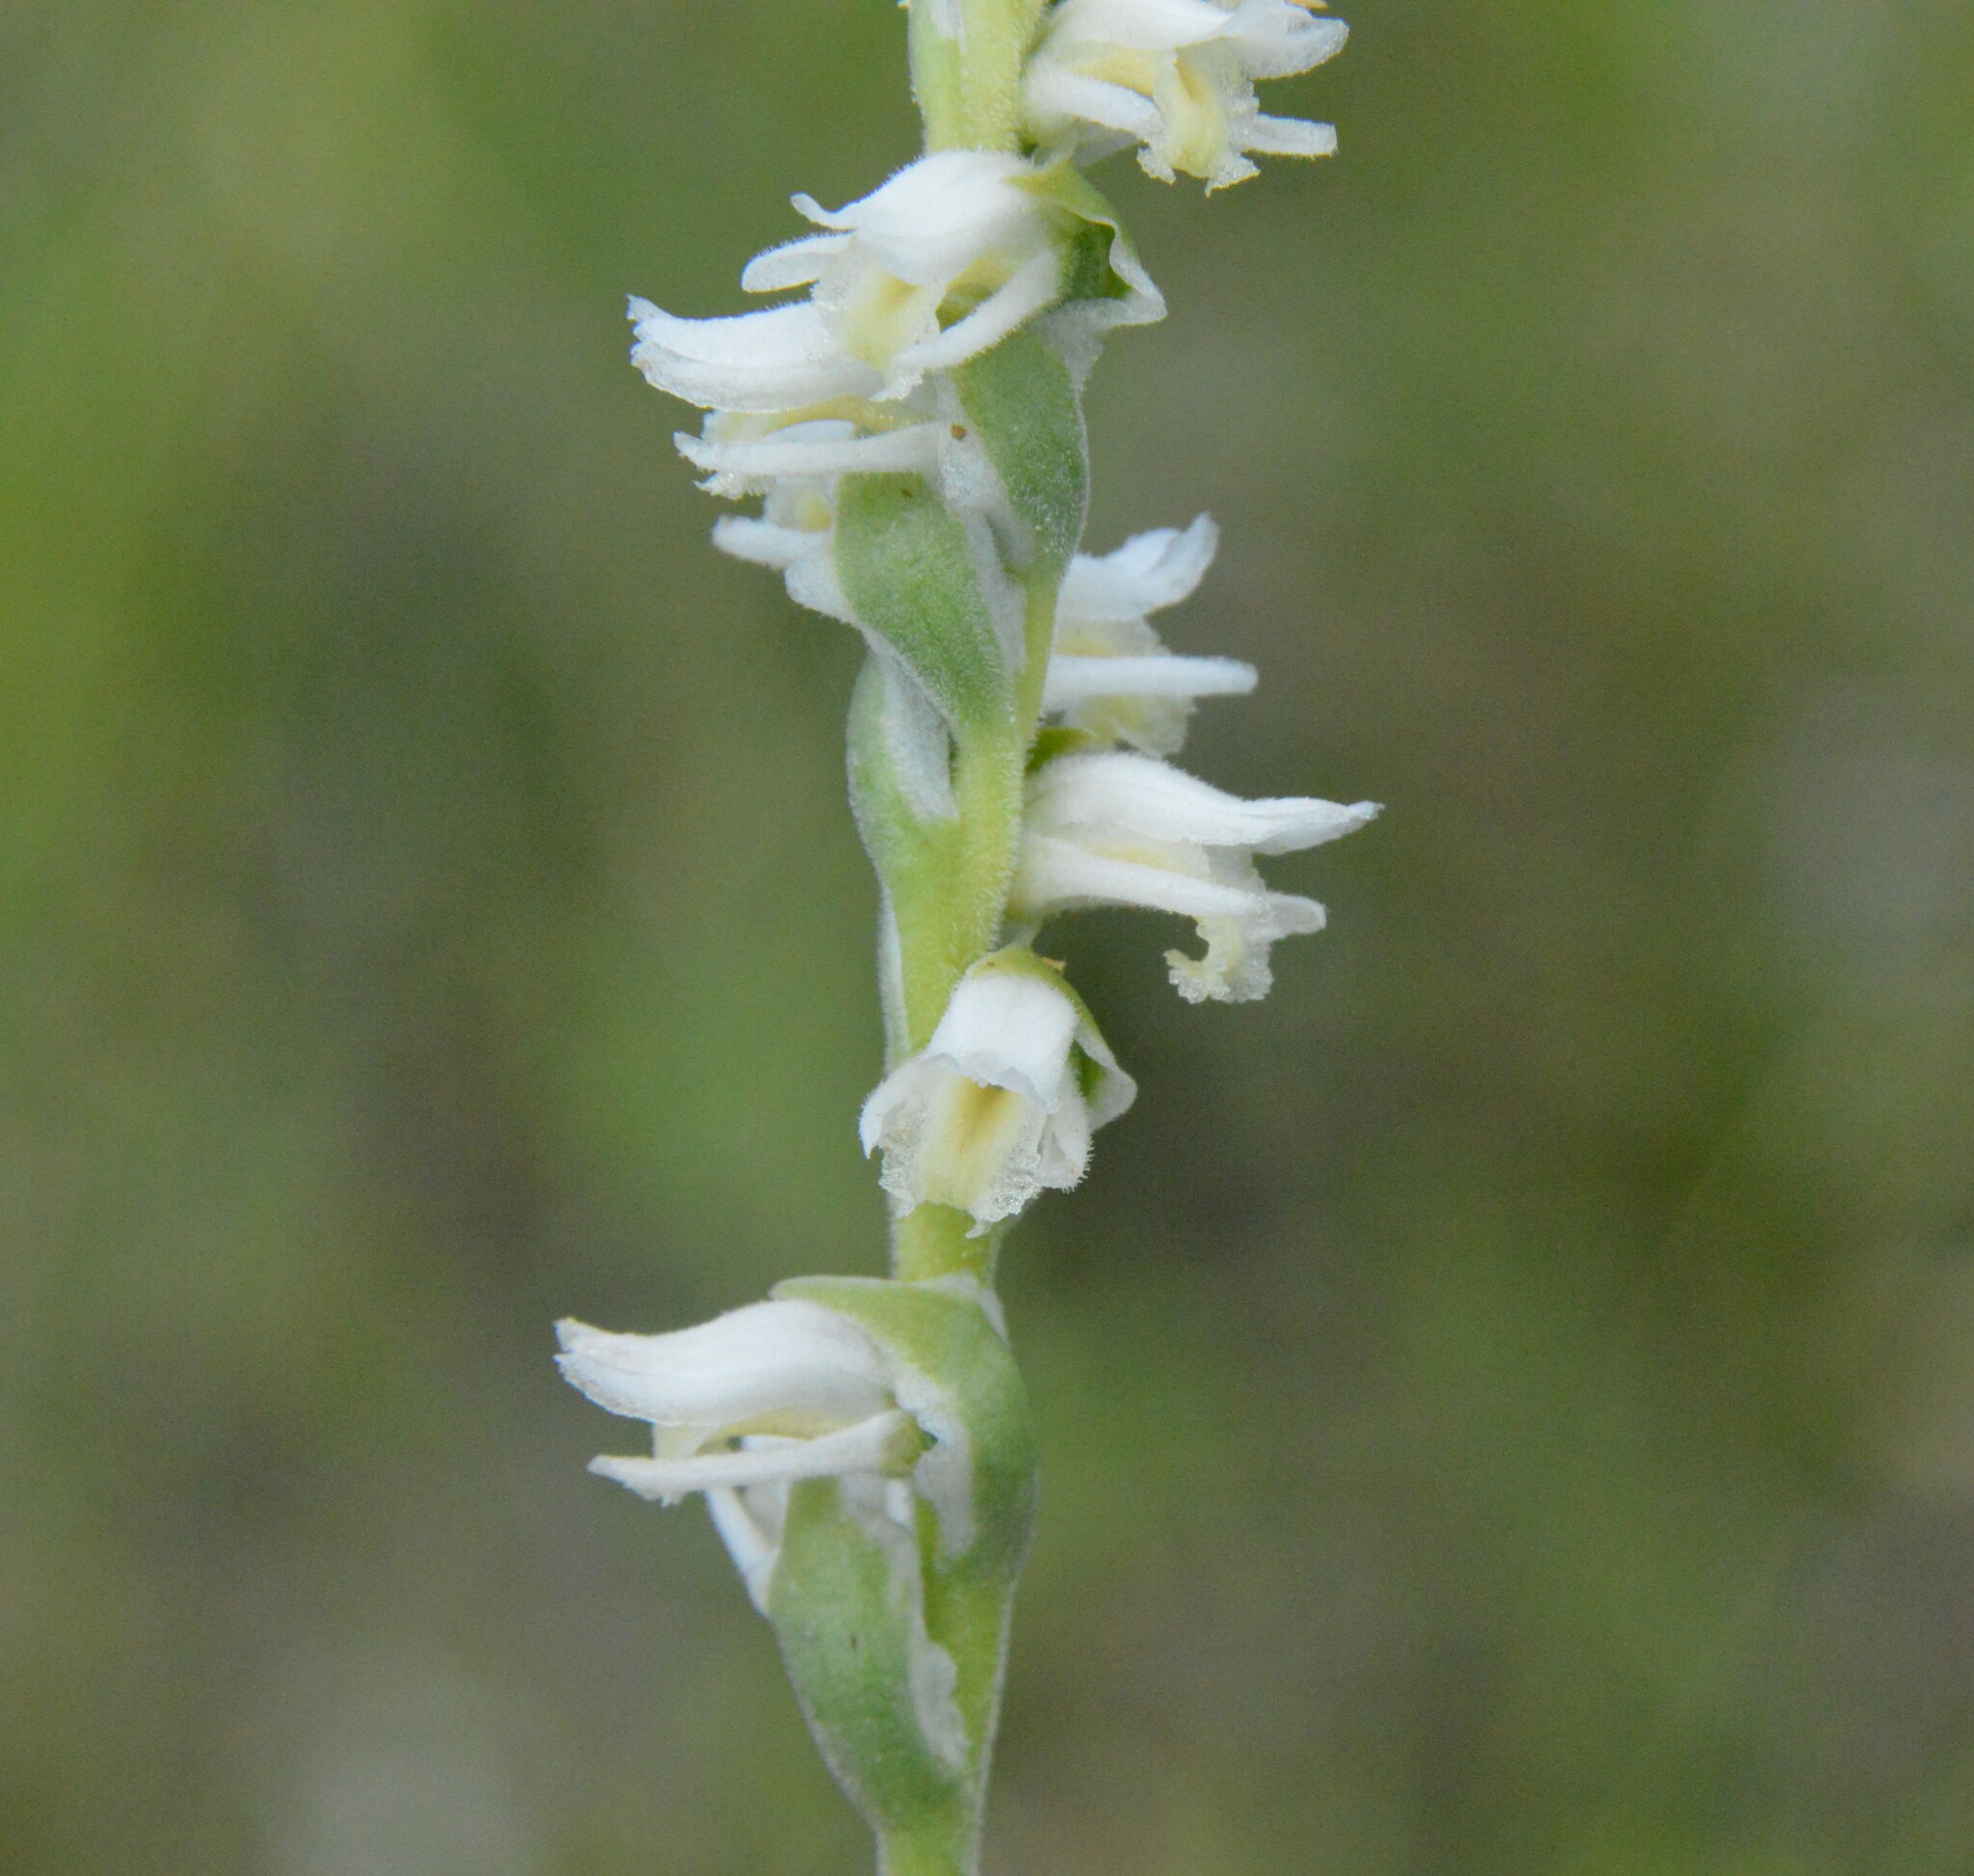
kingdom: Plantae
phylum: Tracheophyta
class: Liliopsida
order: Asparagales
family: Orchidaceae
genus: Spiranthes
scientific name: Spiranthes vernalis
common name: Spring ladies'-tresses
